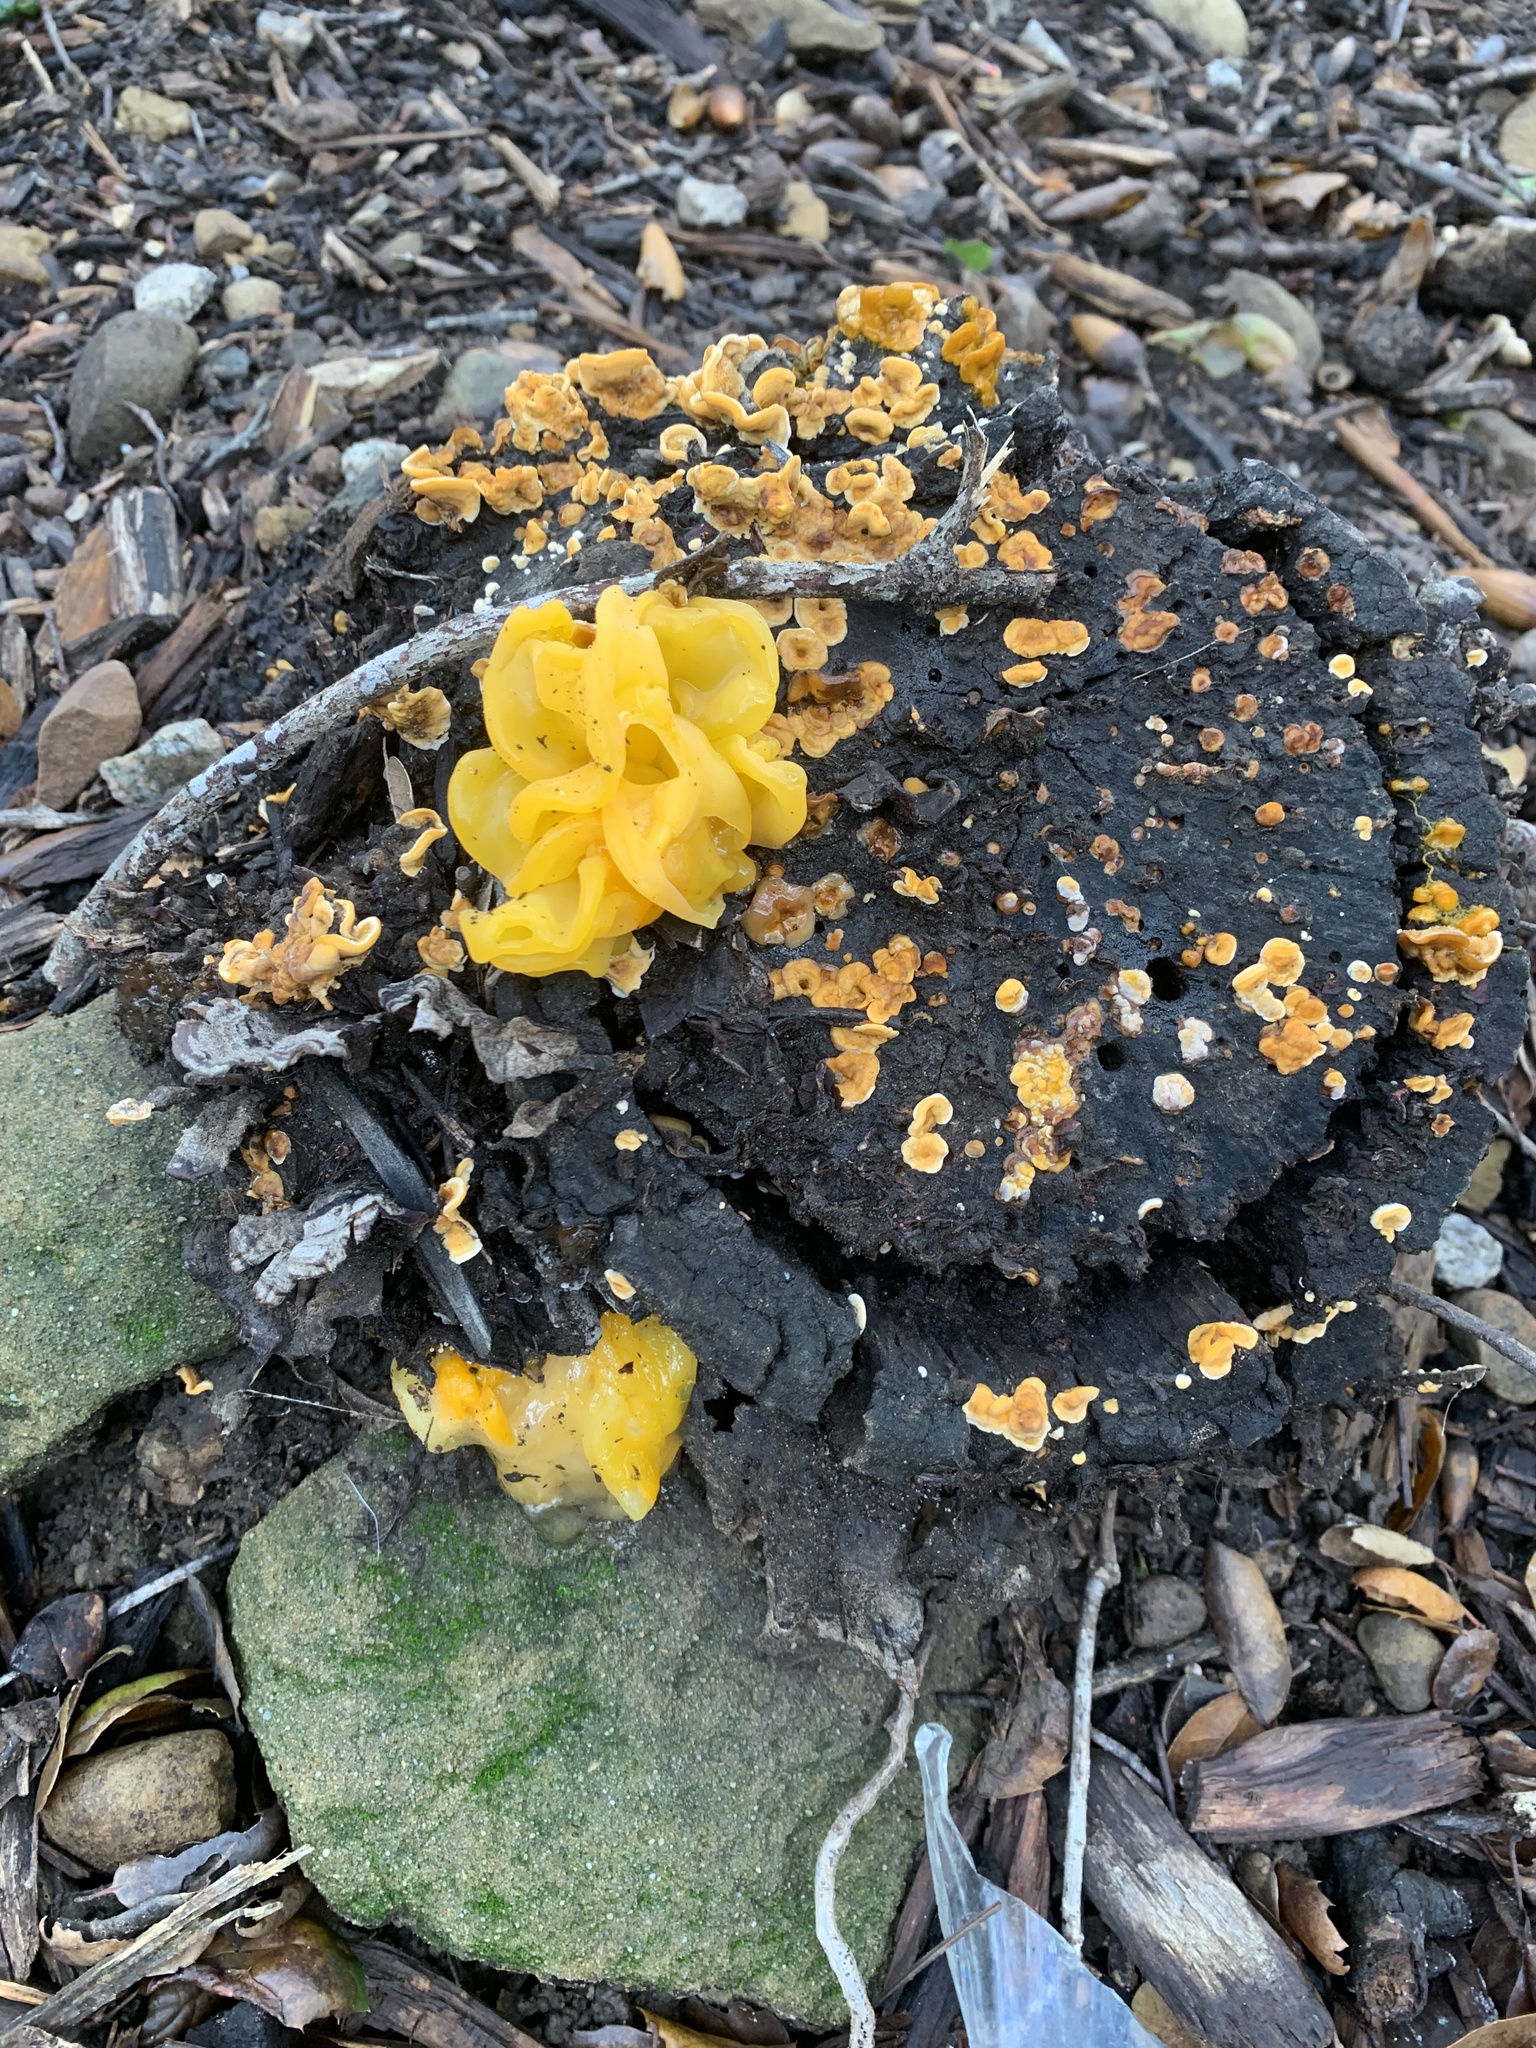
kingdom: Fungi
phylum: Basidiomycota
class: Tremellomycetes
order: Tremellales
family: Naemateliaceae
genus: Naematelia
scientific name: Naematelia aurantia
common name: Golden ear
